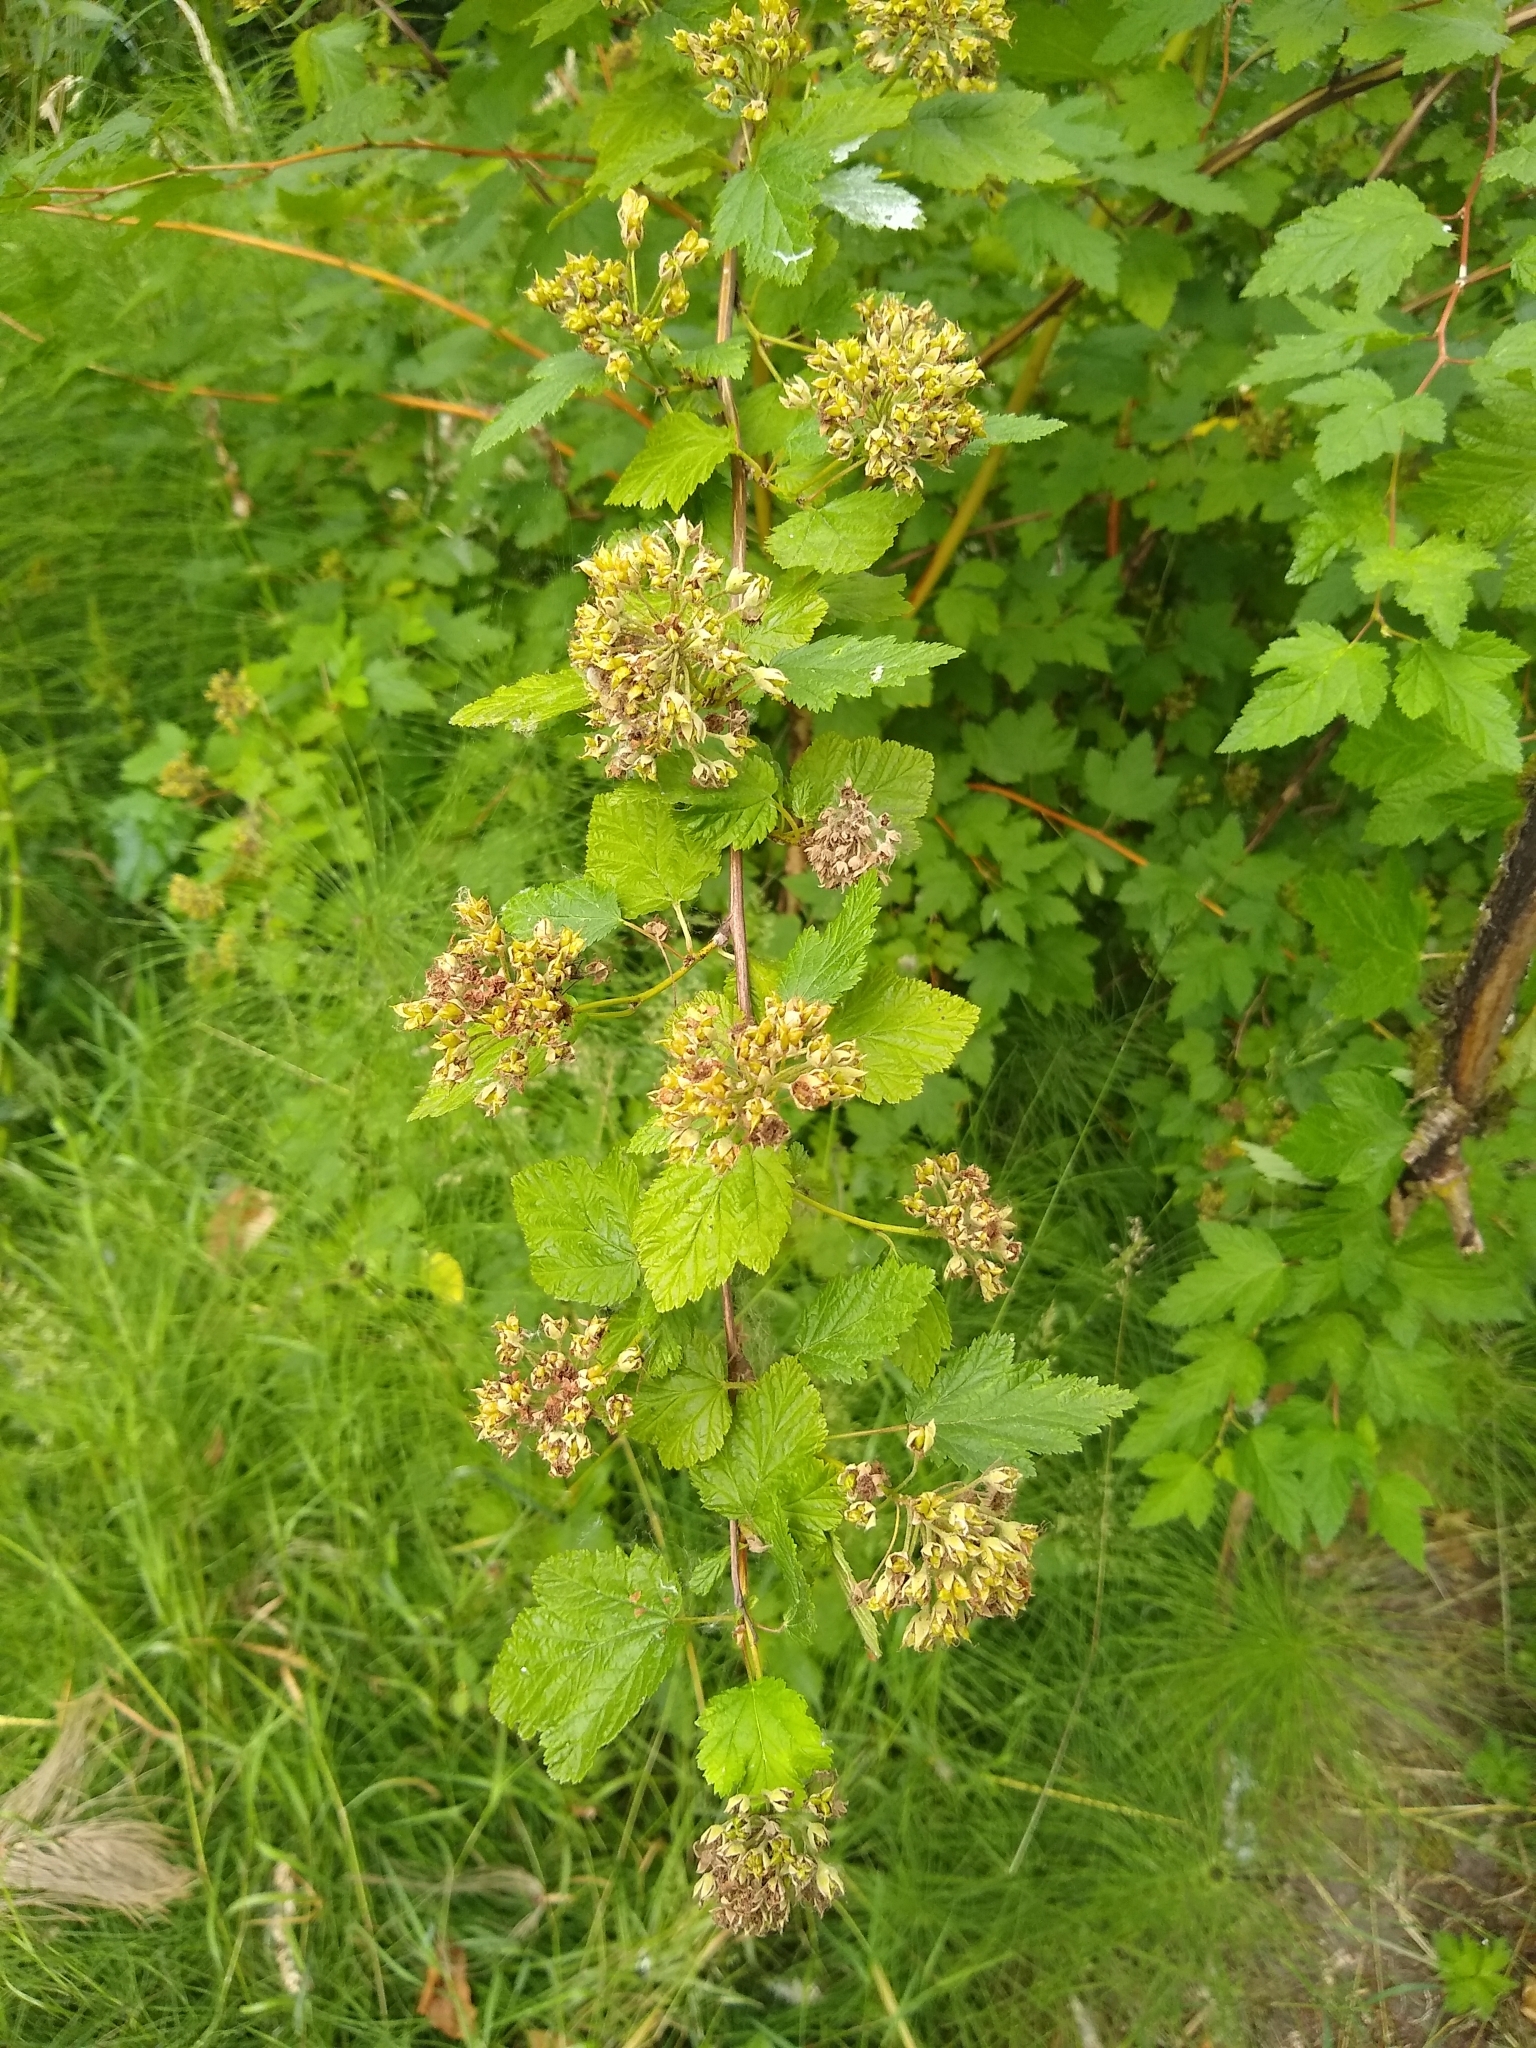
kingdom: Plantae
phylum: Tracheophyta
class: Magnoliopsida
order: Rosales
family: Rosaceae
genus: Physocarpus
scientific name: Physocarpus capitatus
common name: Pacific ninebark
